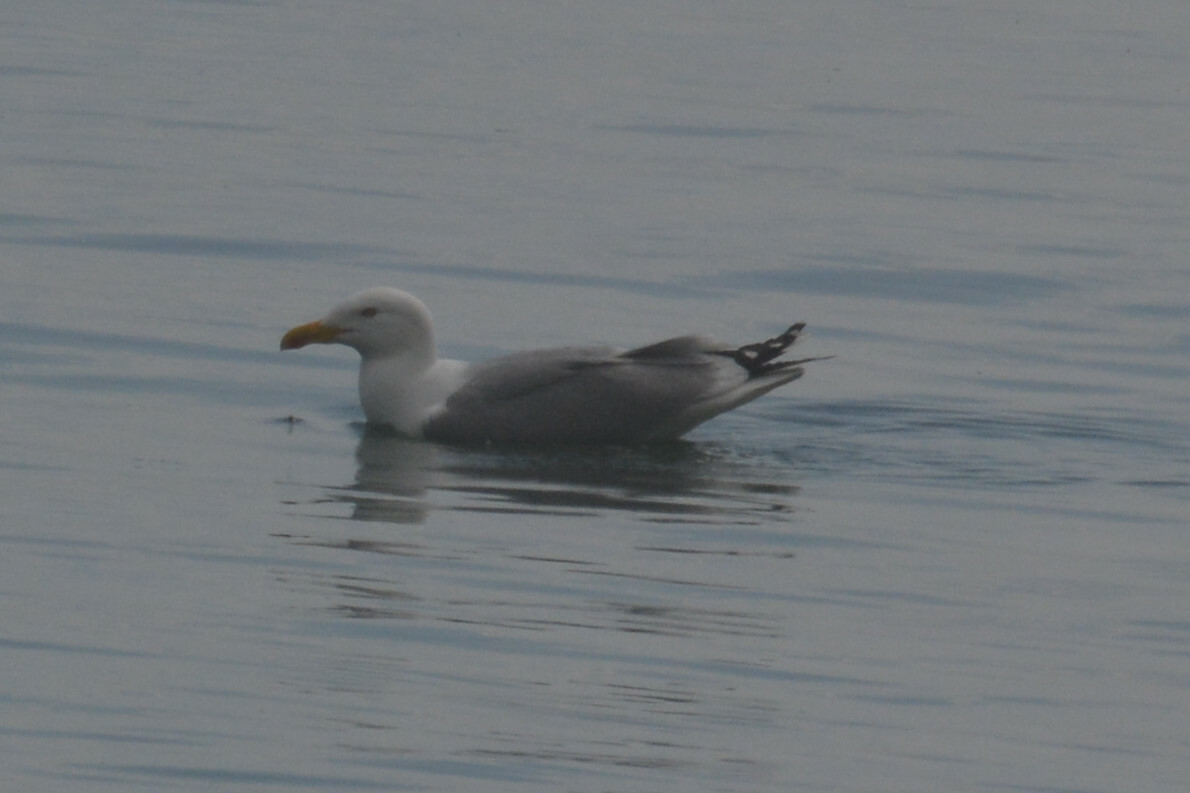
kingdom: Animalia
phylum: Chordata
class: Aves
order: Charadriiformes
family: Laridae
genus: Larus
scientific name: Larus michahellis
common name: Yellow-legged gull
